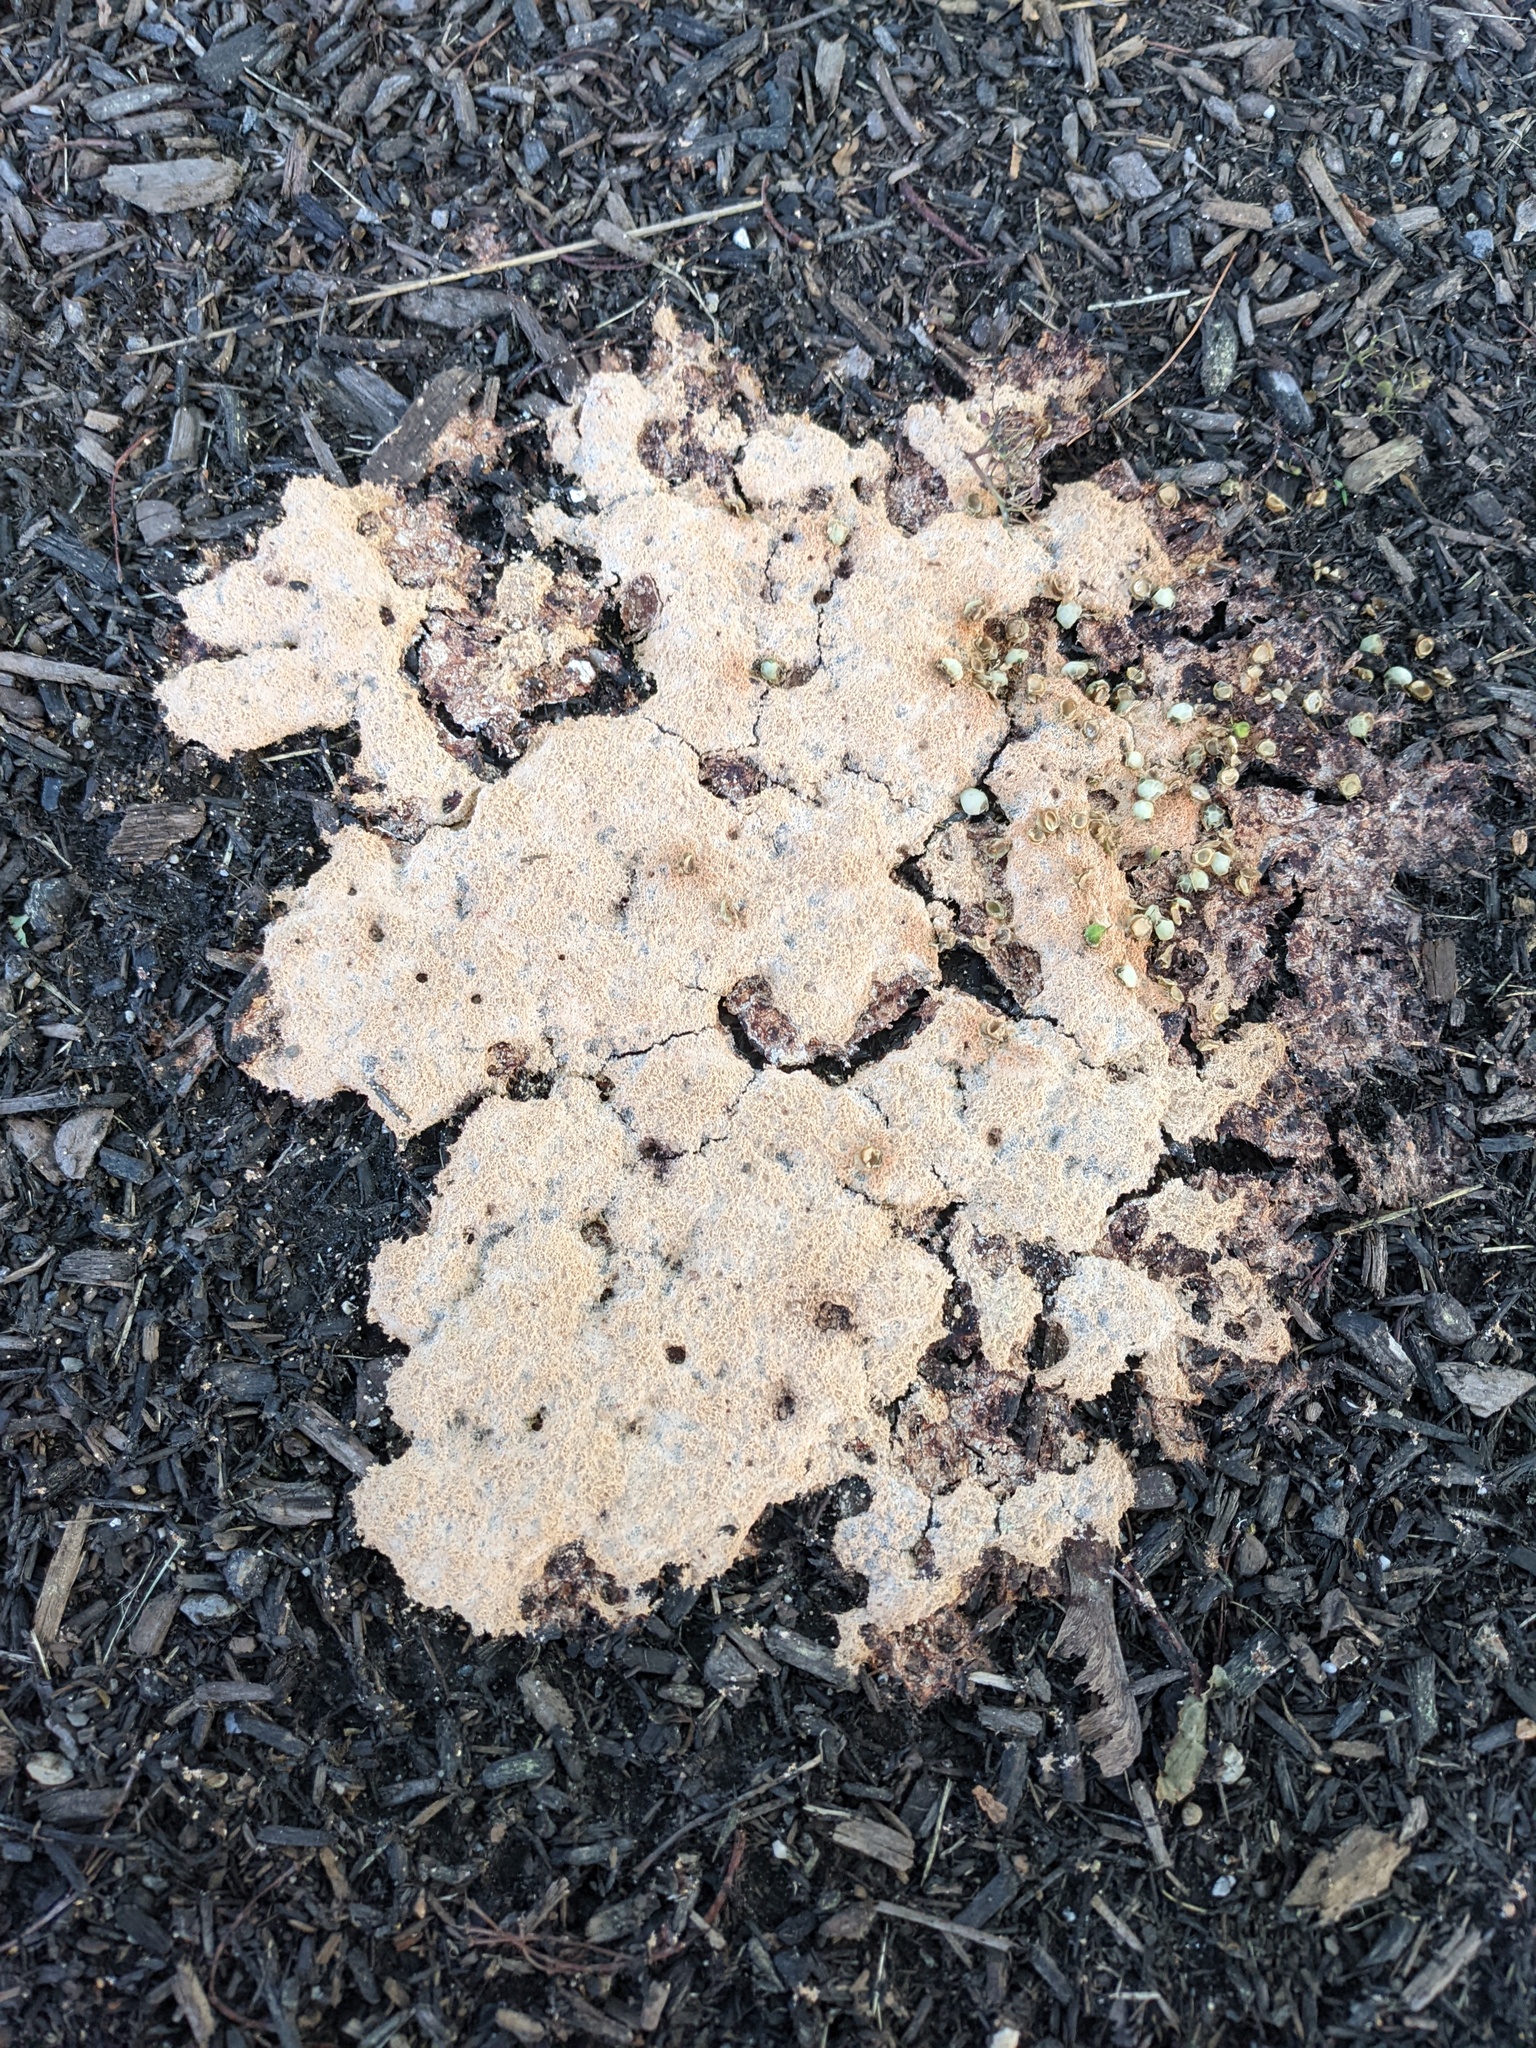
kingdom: Protozoa
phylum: Mycetozoa
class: Myxomycetes
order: Physarales
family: Physaraceae
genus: Fuligo
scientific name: Fuligo septica
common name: Dog vomit slime mold
